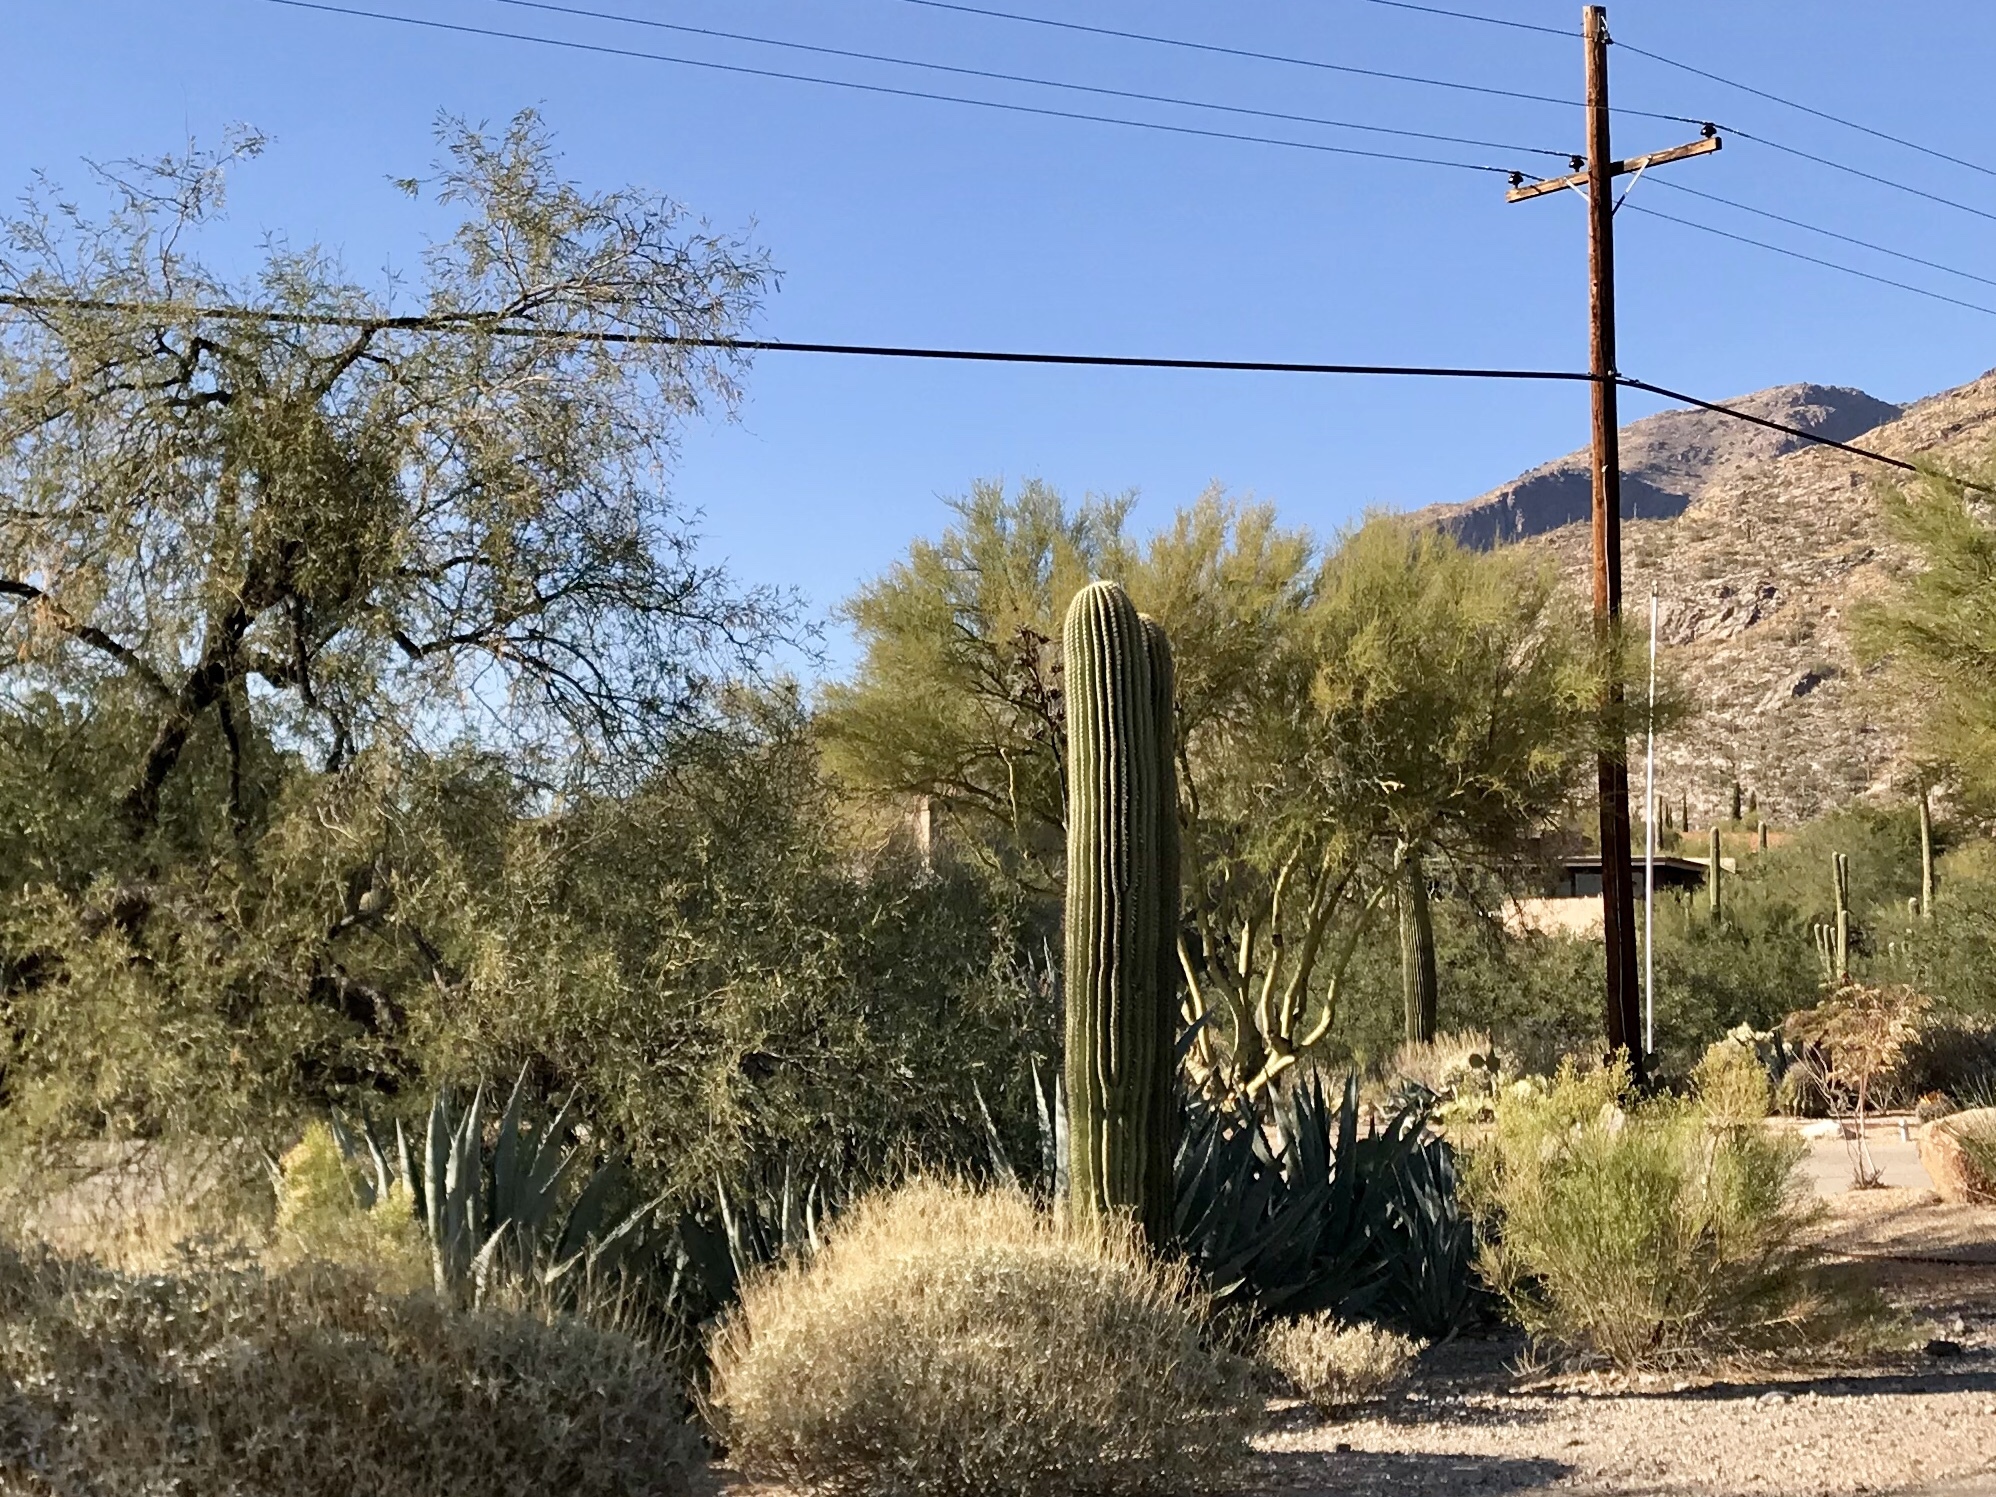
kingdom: Plantae
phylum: Tracheophyta
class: Magnoliopsida
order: Caryophyllales
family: Cactaceae
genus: Carnegiea
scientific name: Carnegiea gigantea
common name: Saguaro
